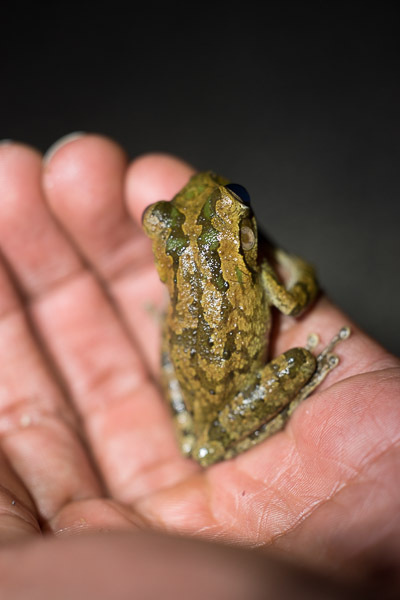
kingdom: Animalia
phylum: Chordata
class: Amphibia
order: Anura
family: Hylidae
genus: Osteopilus
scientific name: Osteopilus septentrionalis
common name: Cuban treefrog
